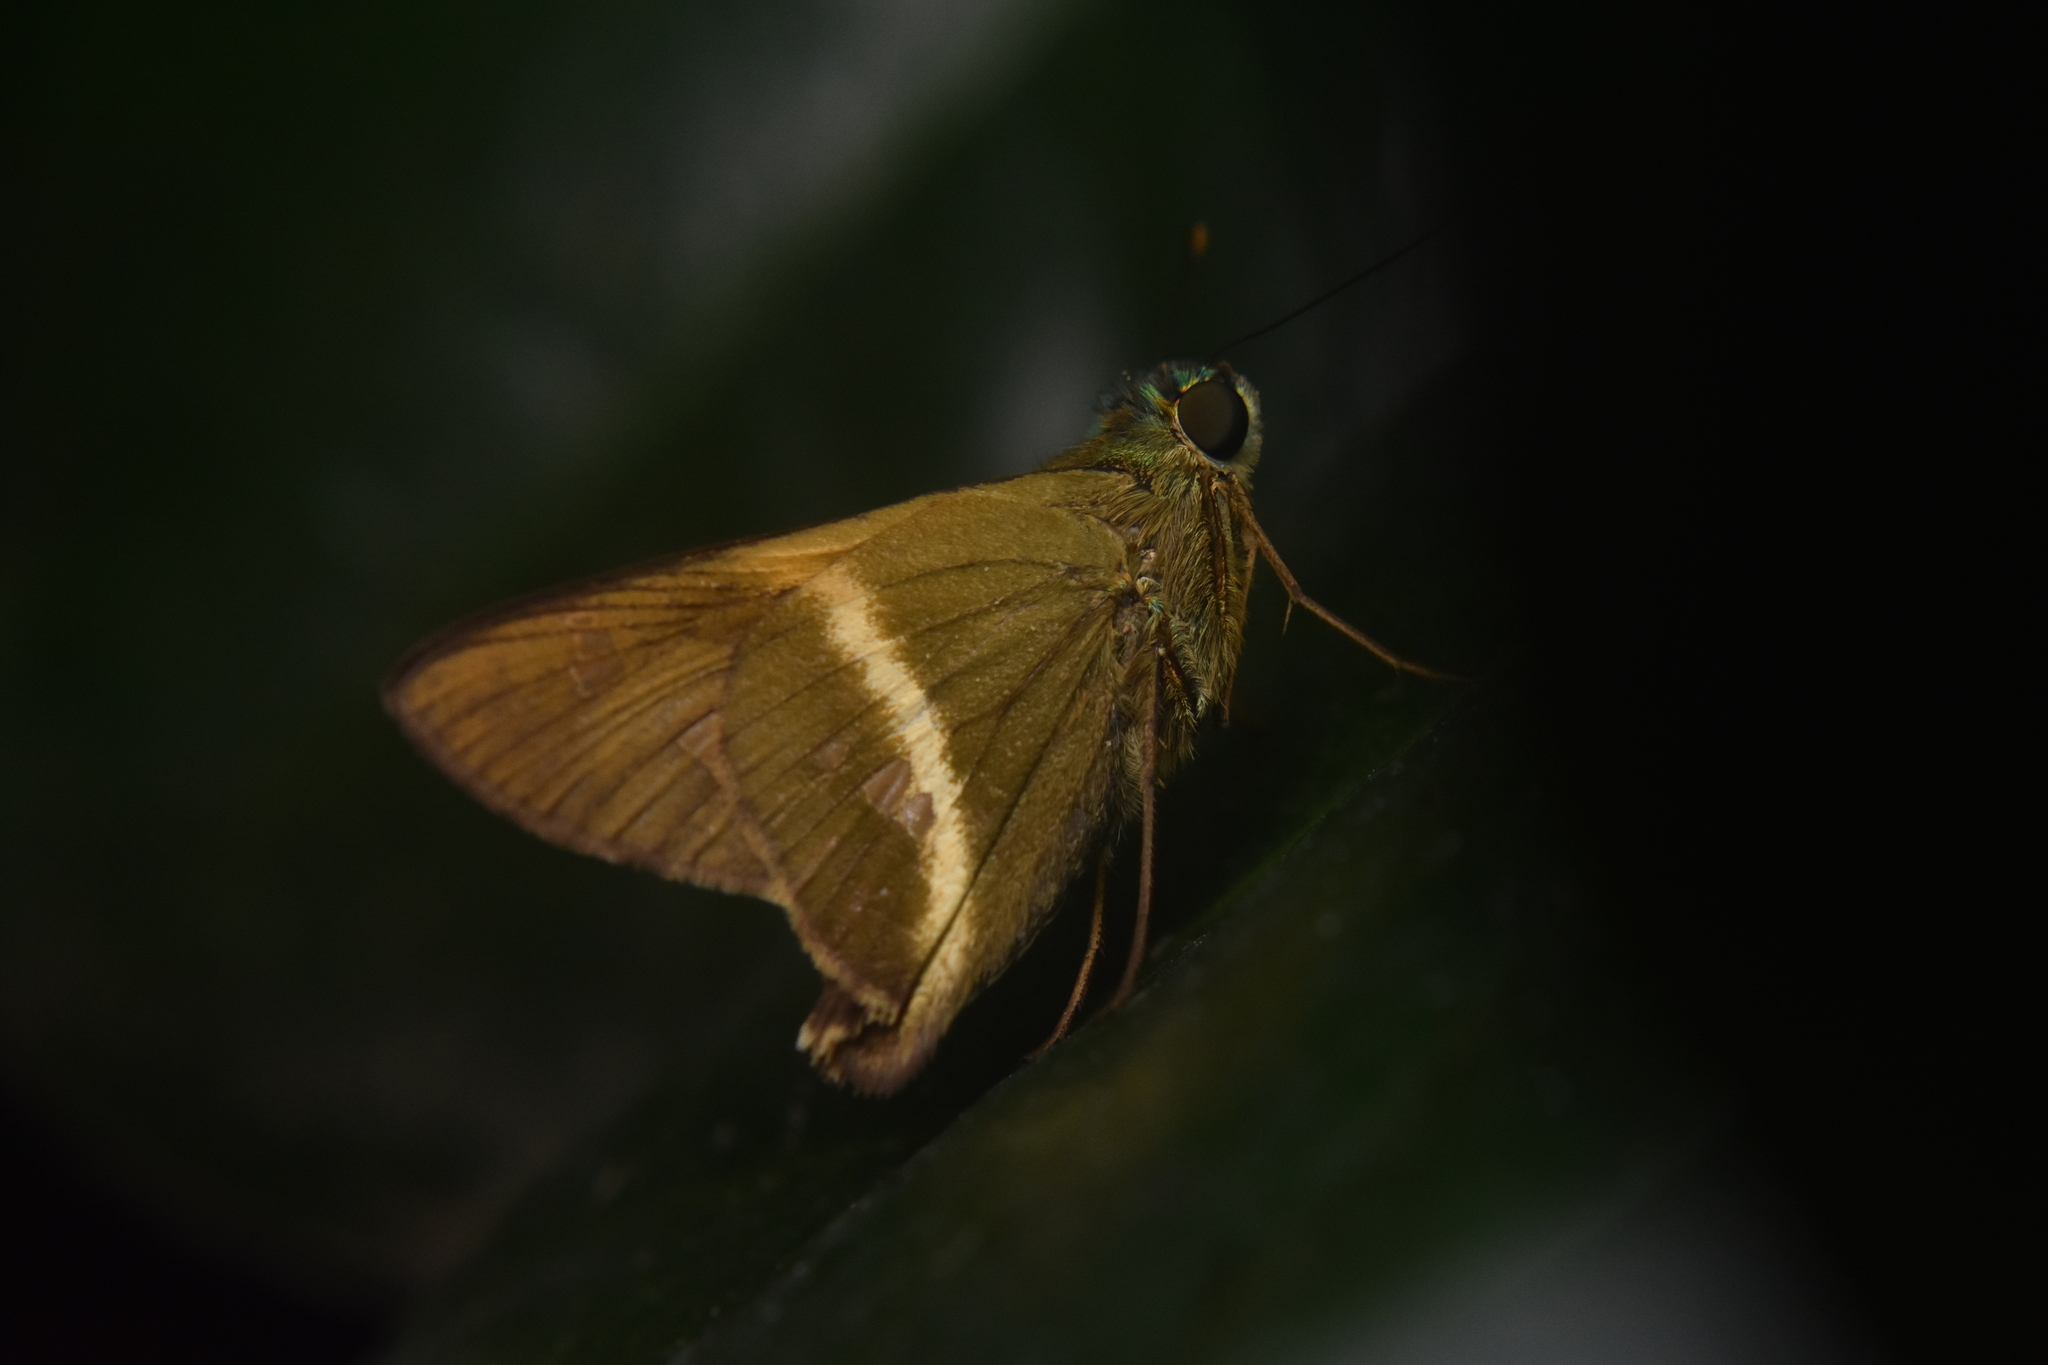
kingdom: Animalia
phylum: Arthropoda
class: Insecta
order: Lepidoptera
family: Hesperiidae
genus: Aguna
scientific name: Aguna coelus
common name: Stoll's aguna
